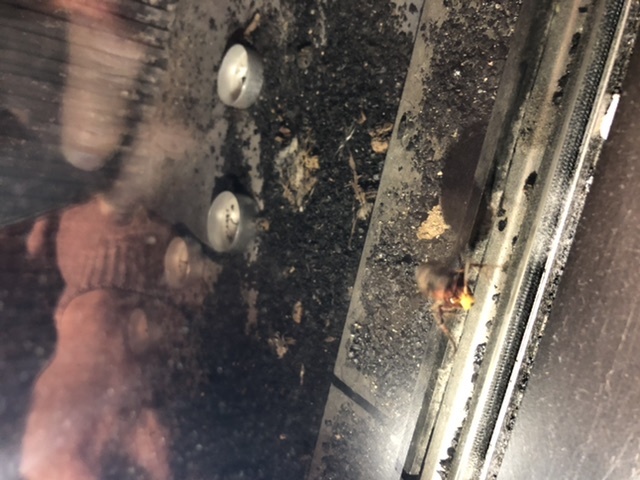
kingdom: Animalia
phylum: Arthropoda
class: Insecta
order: Hymenoptera
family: Vespidae
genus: Vespa
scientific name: Vespa crabro
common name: Hornet
